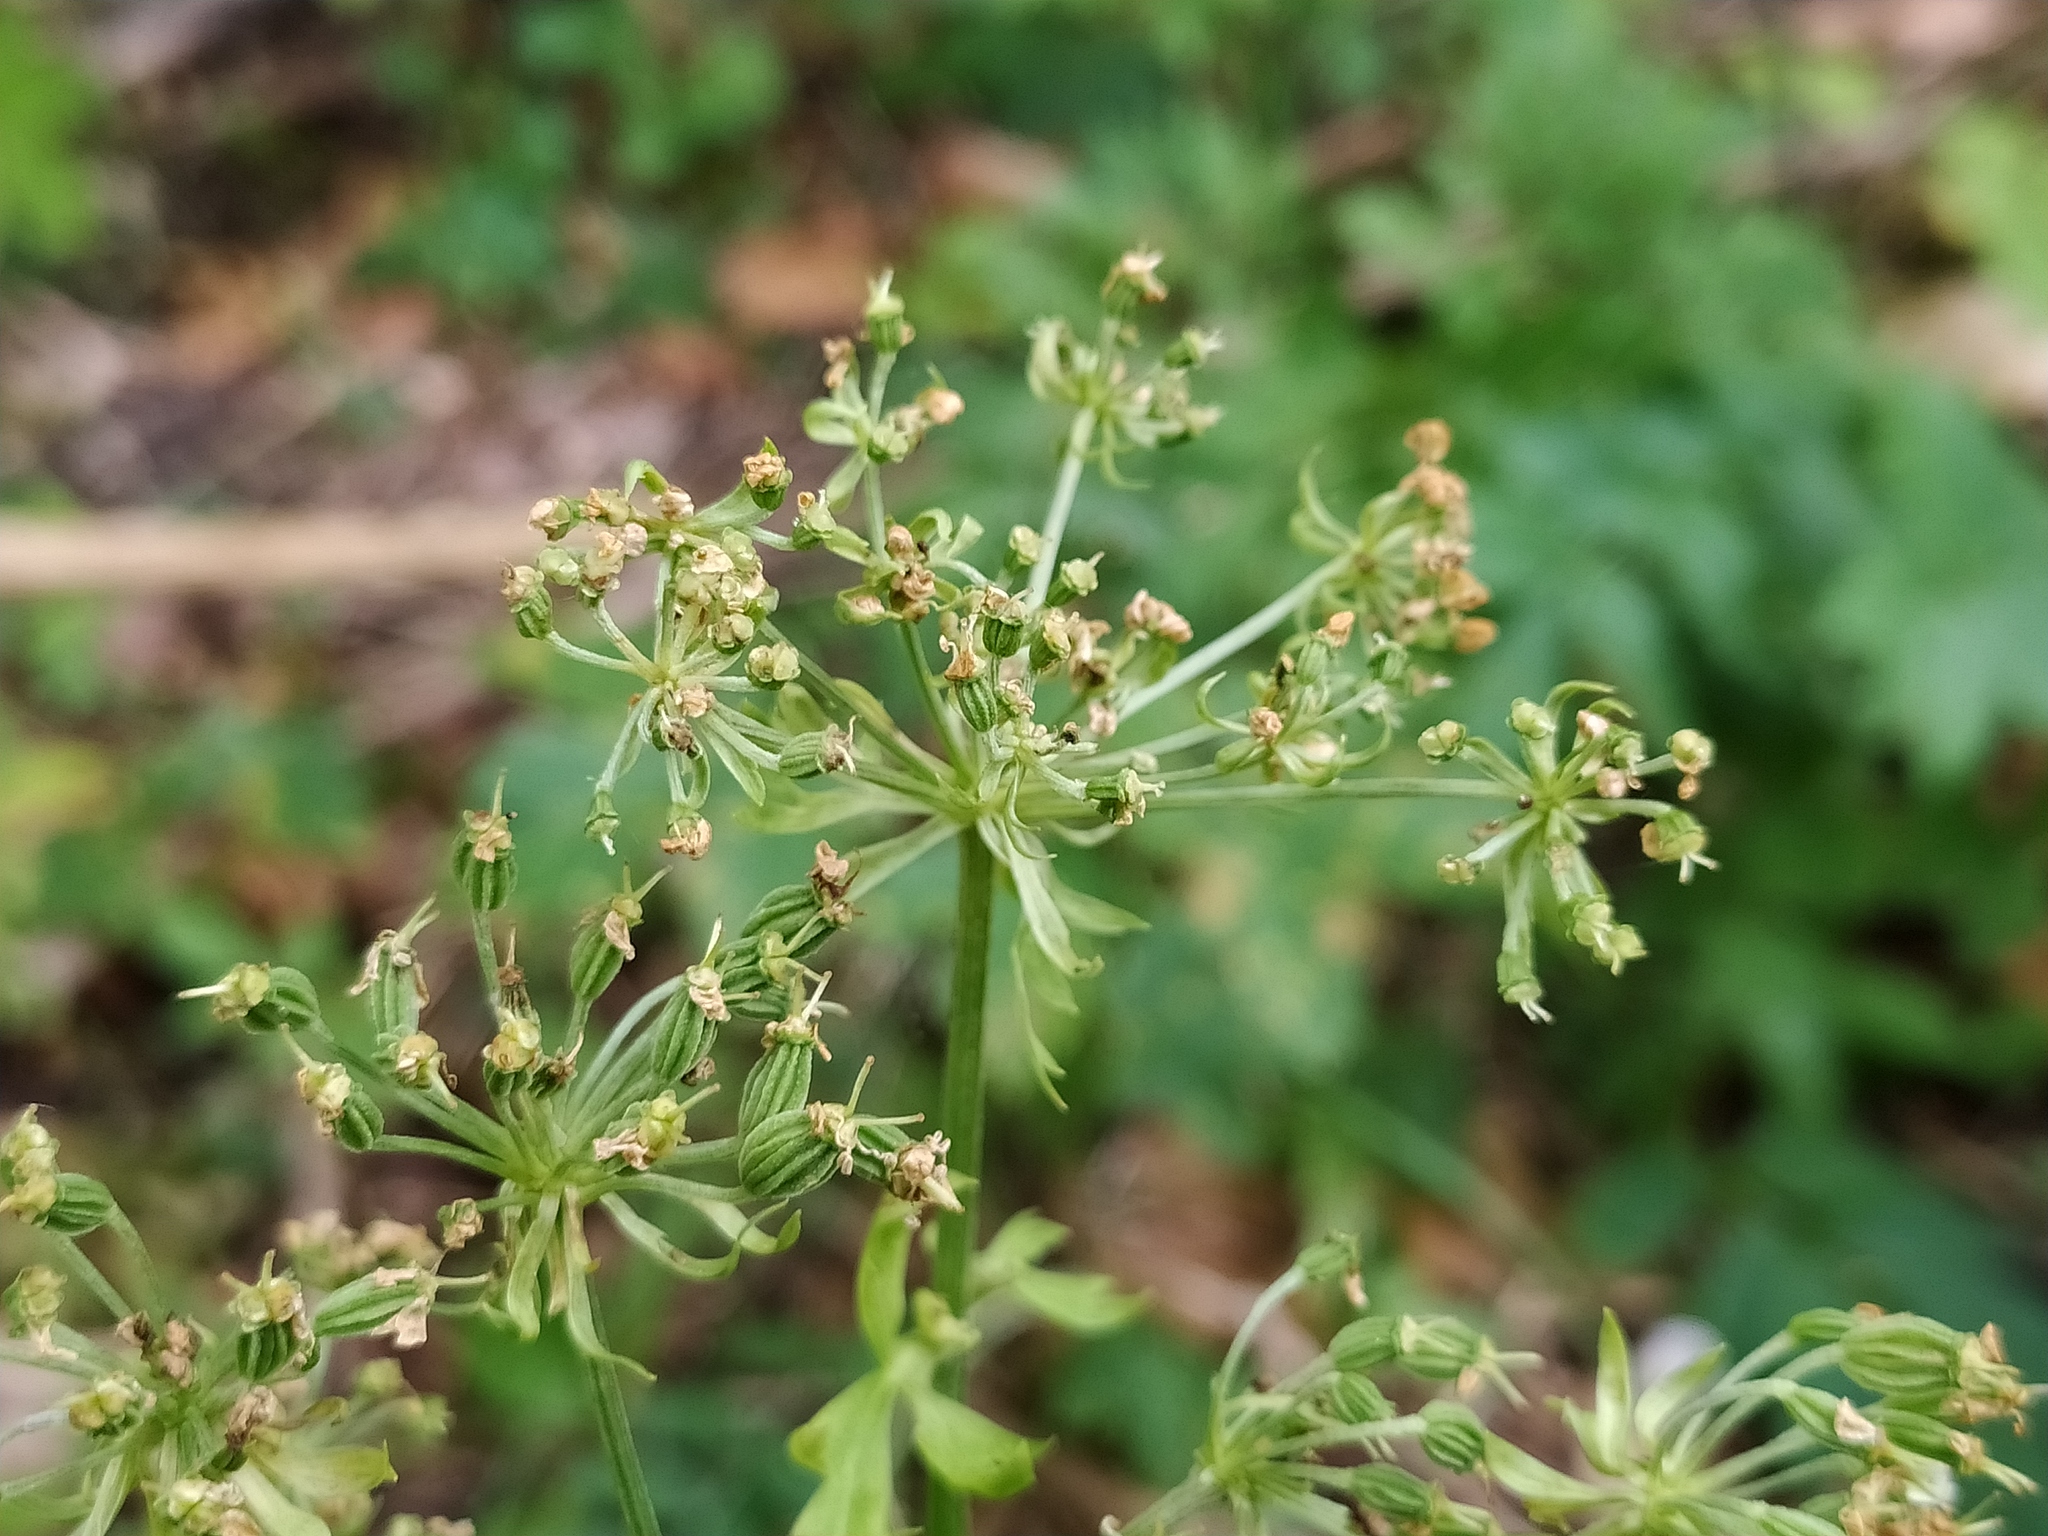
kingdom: Plantae
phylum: Tracheophyta
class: Magnoliopsida
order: Apiales
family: Apiaceae
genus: Pleurospermum
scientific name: Pleurospermum austriacum
